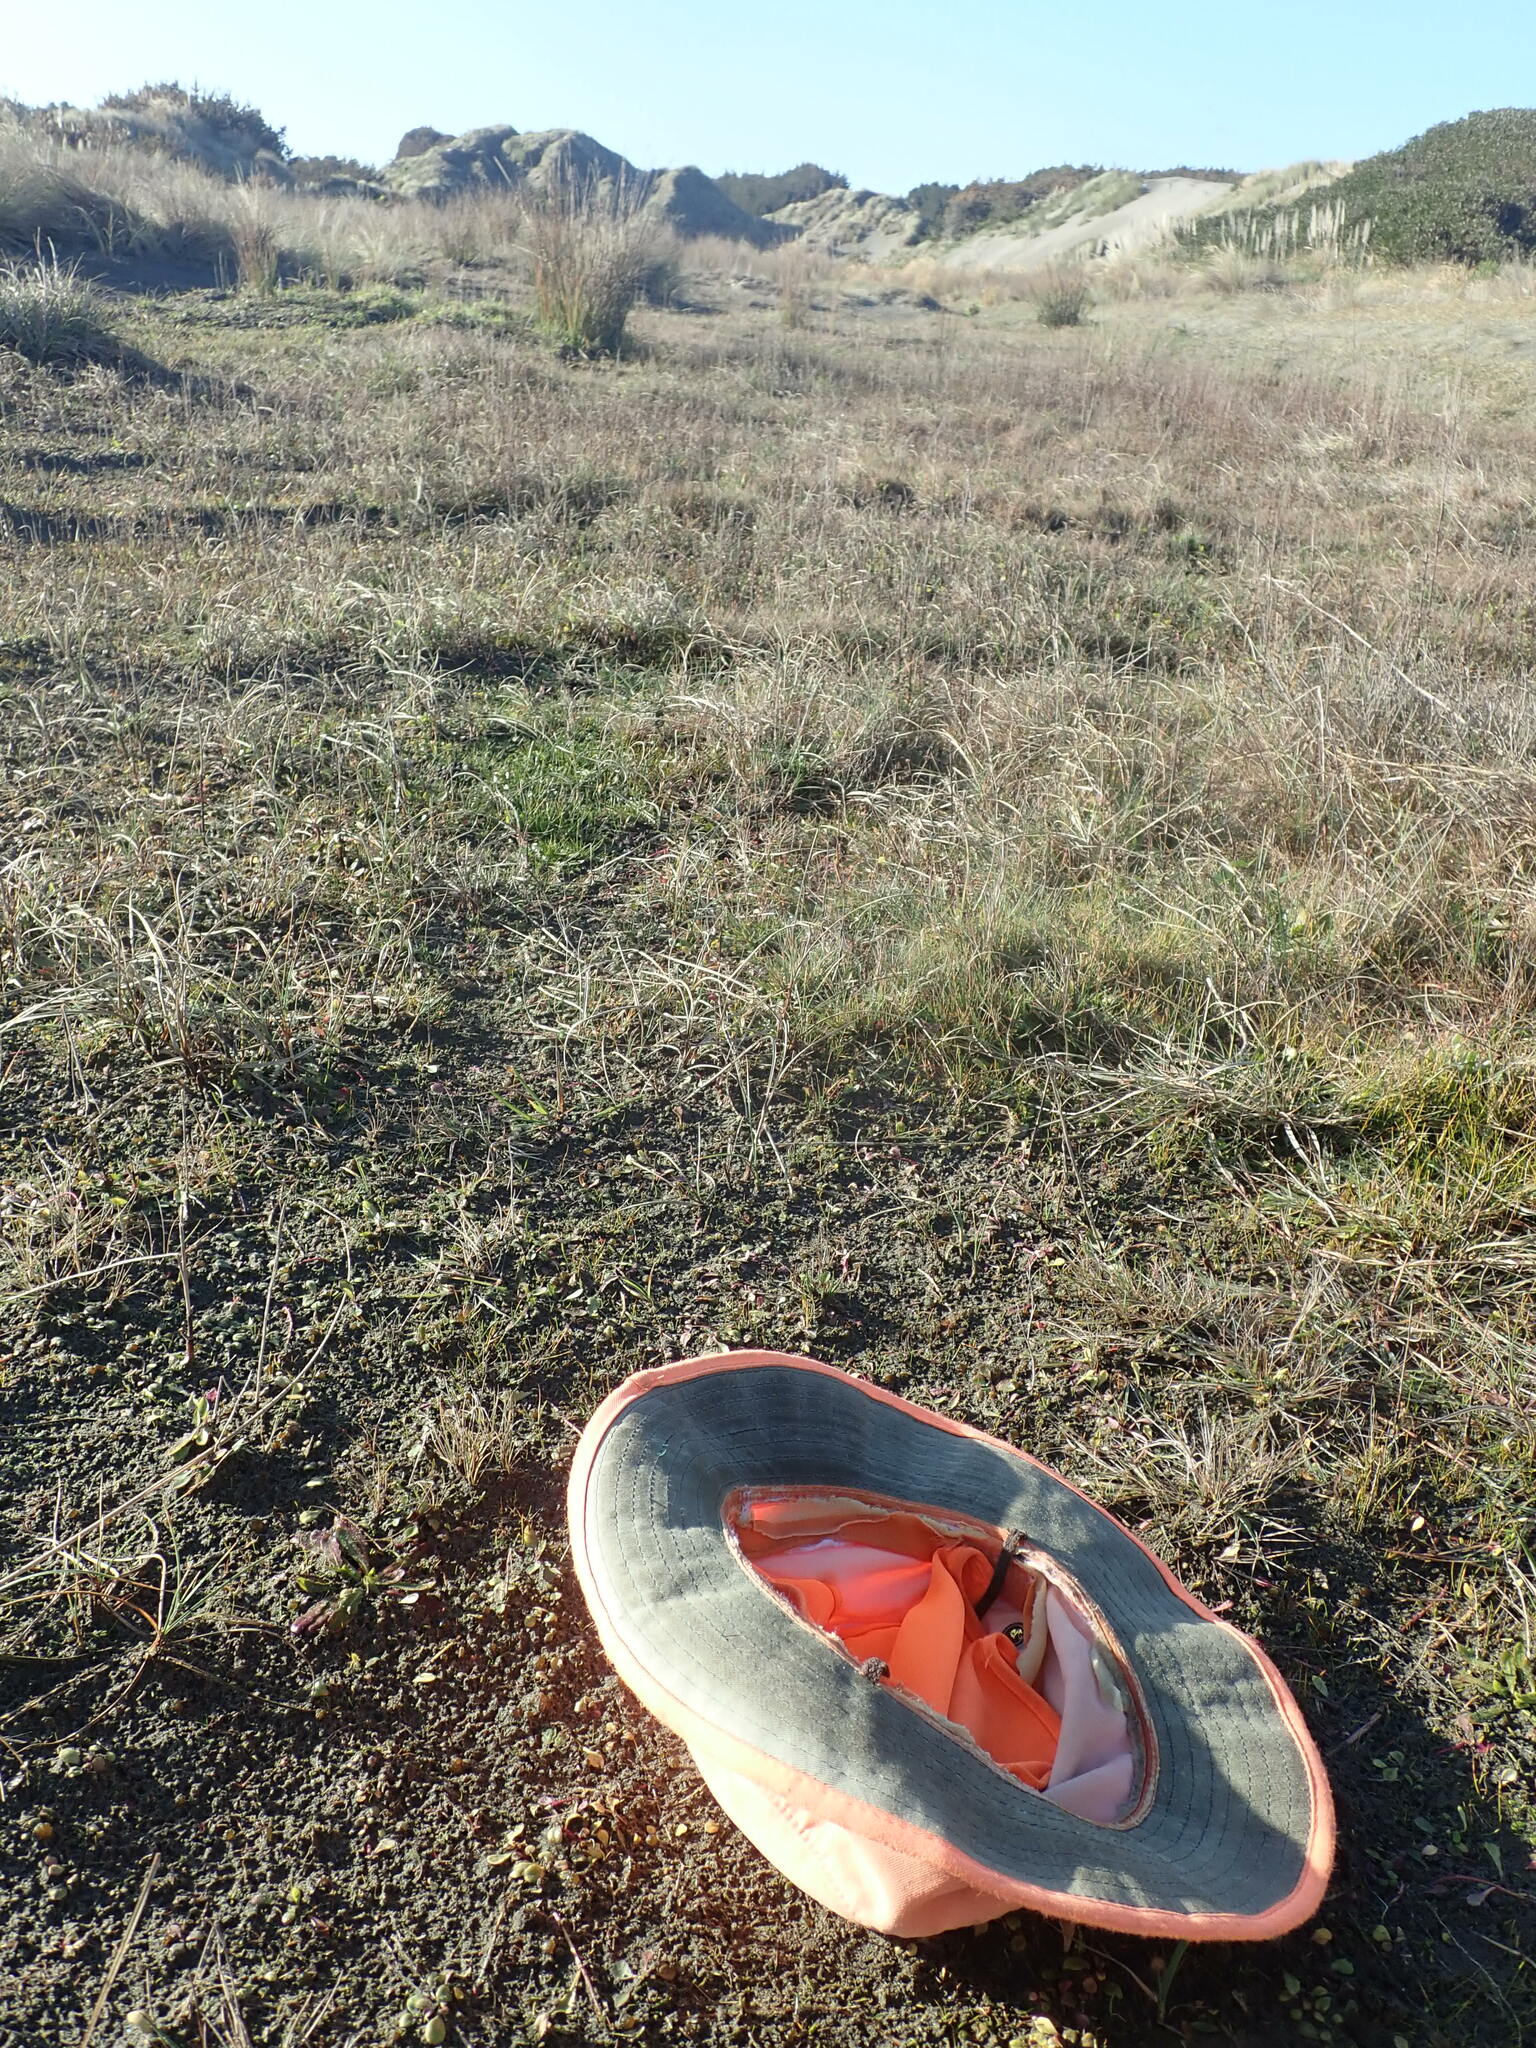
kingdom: Plantae
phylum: Tracheophyta
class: Magnoliopsida
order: Asterales
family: Campanulaceae
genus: Lobelia
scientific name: Lobelia anceps
